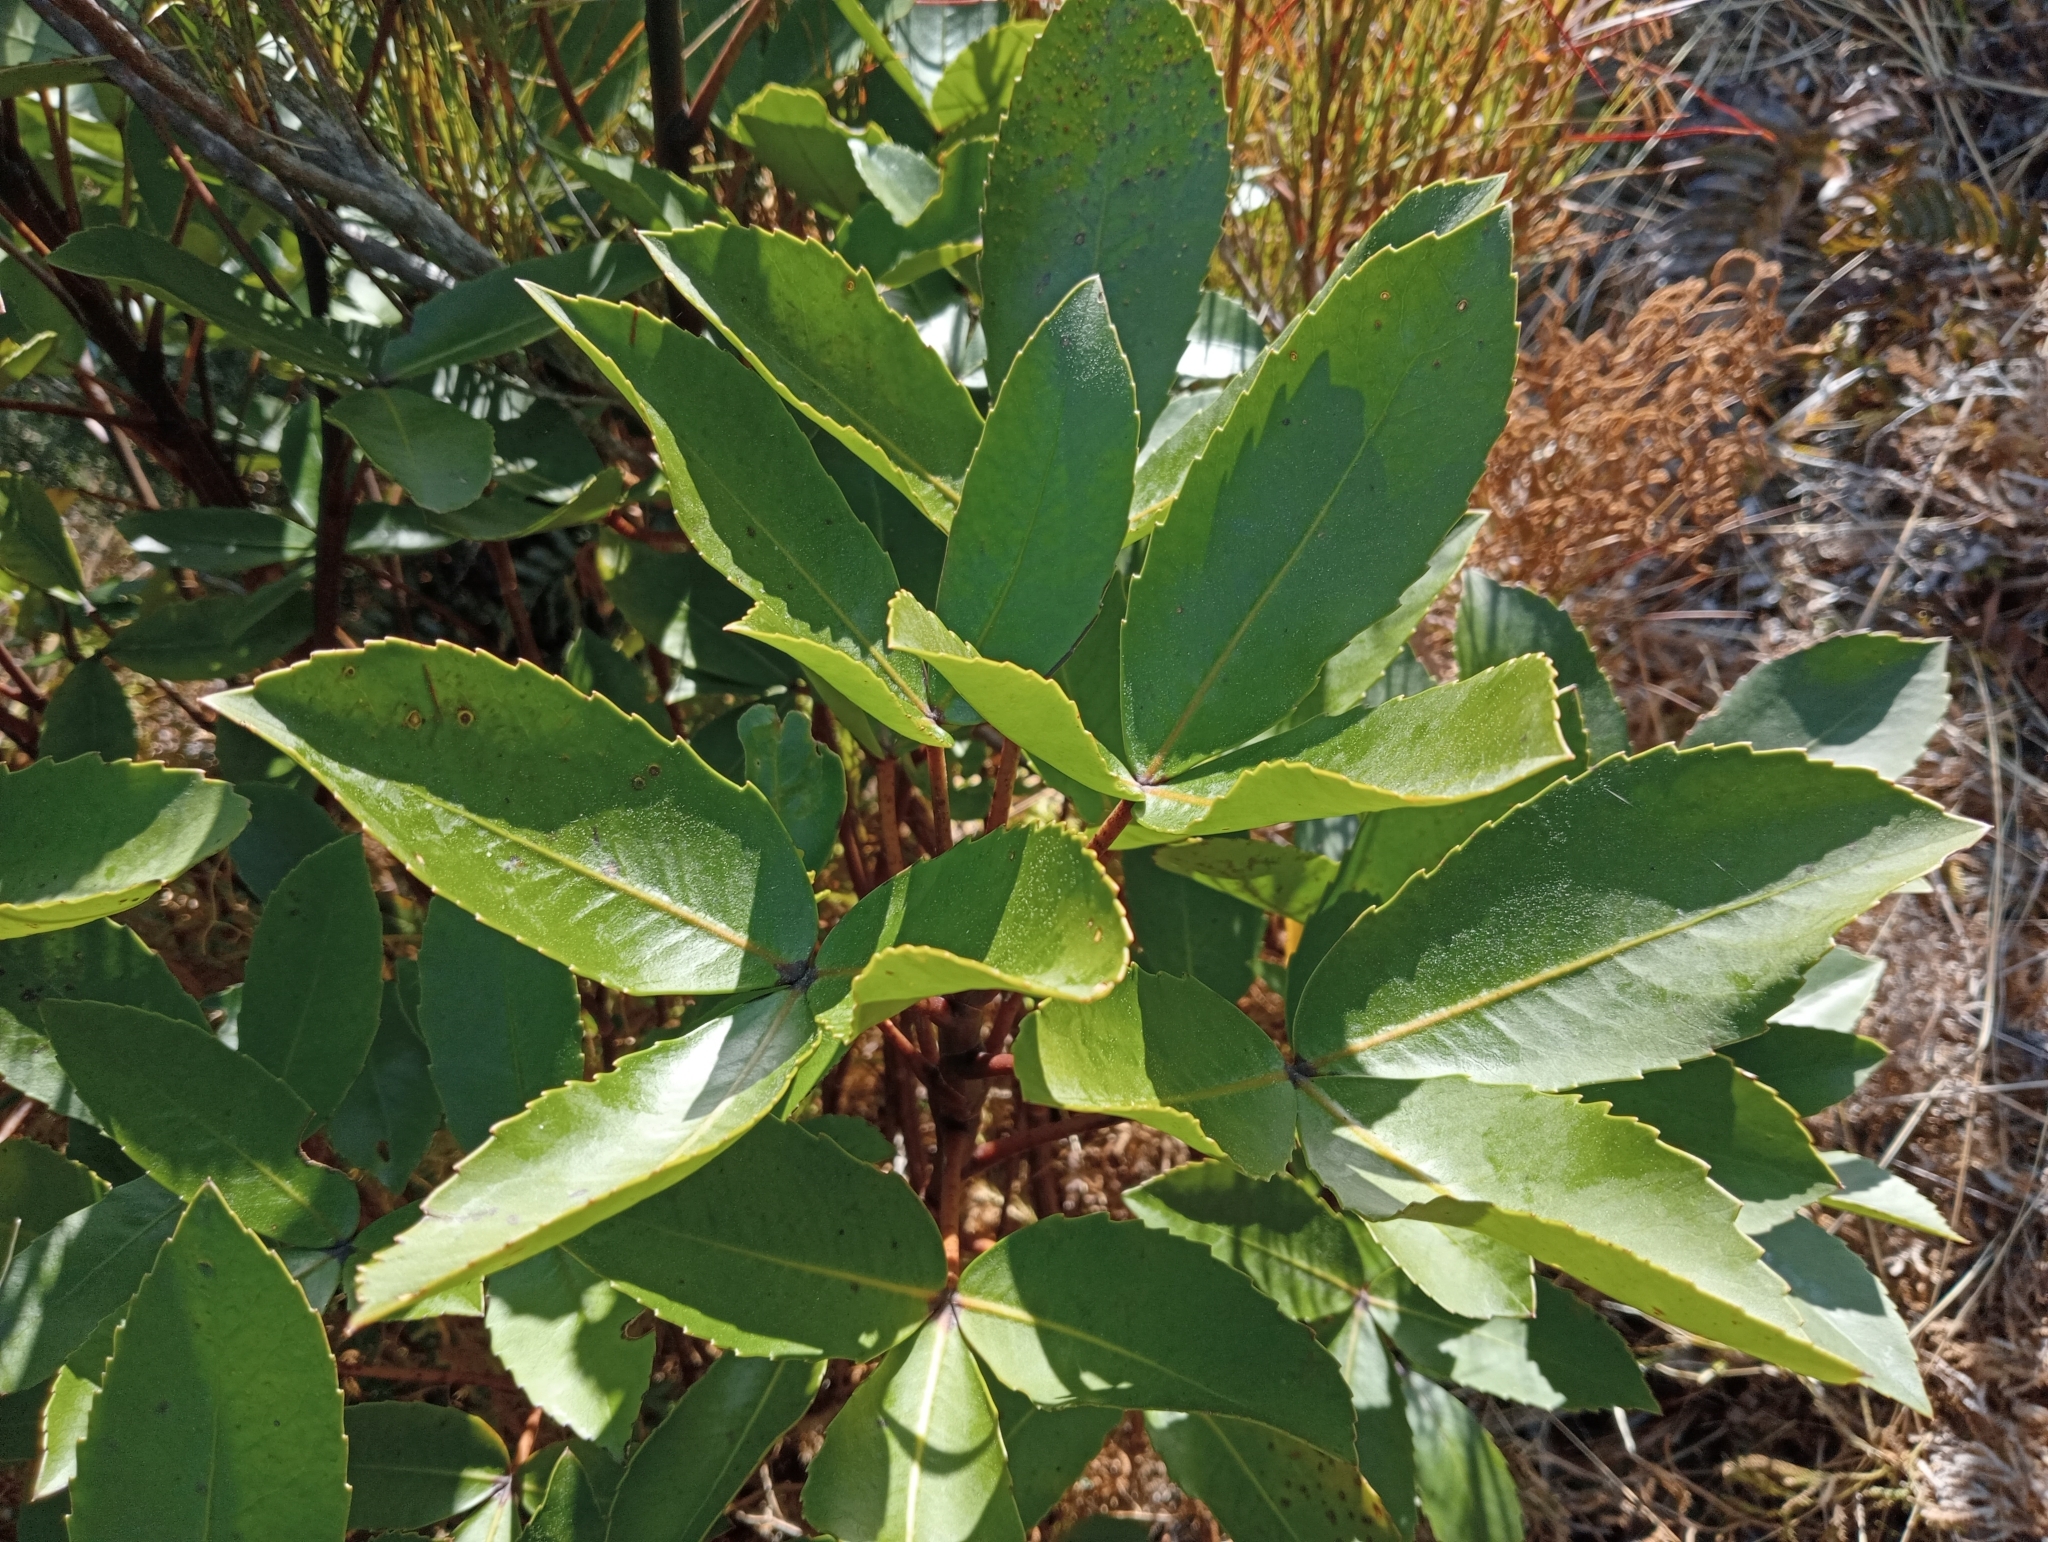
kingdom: Plantae
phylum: Tracheophyta
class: Magnoliopsida
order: Apiales
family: Araliaceae
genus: Neopanax
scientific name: Neopanax colensoi
